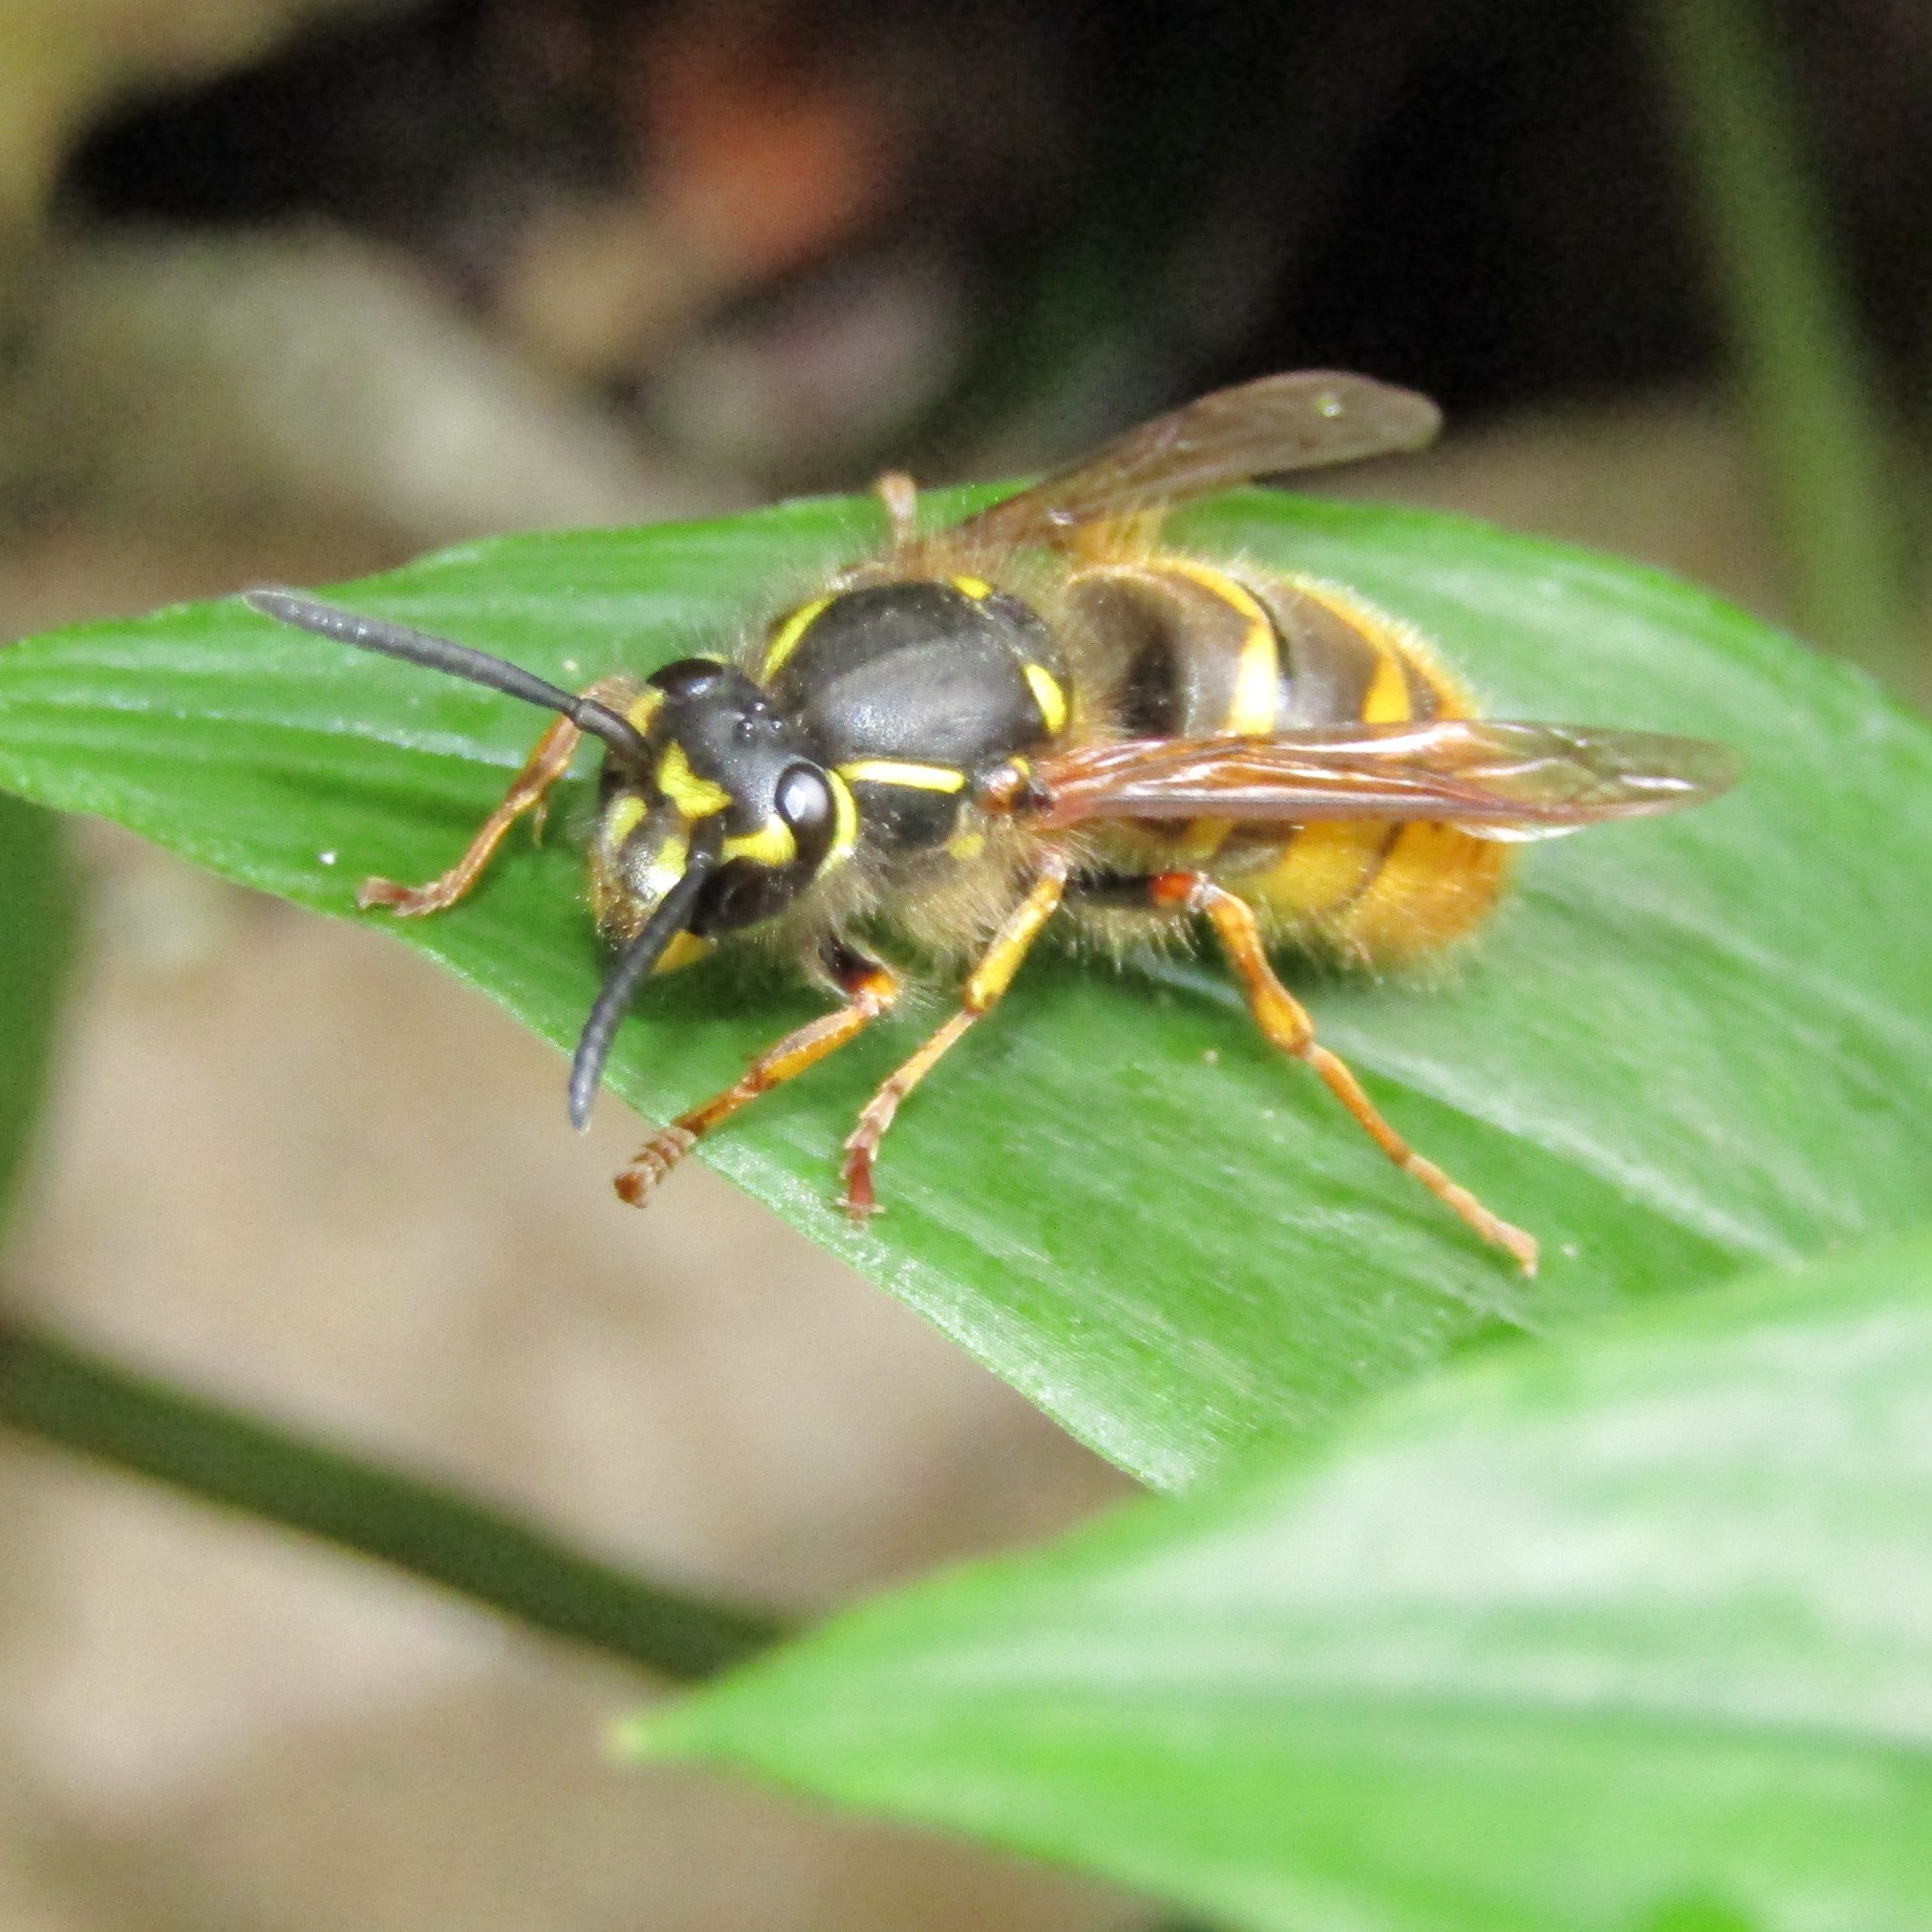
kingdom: Animalia
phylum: Arthropoda
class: Insecta
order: Hymenoptera
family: Vespidae
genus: Vespula
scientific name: Vespula vulgaris
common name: Common wasp
